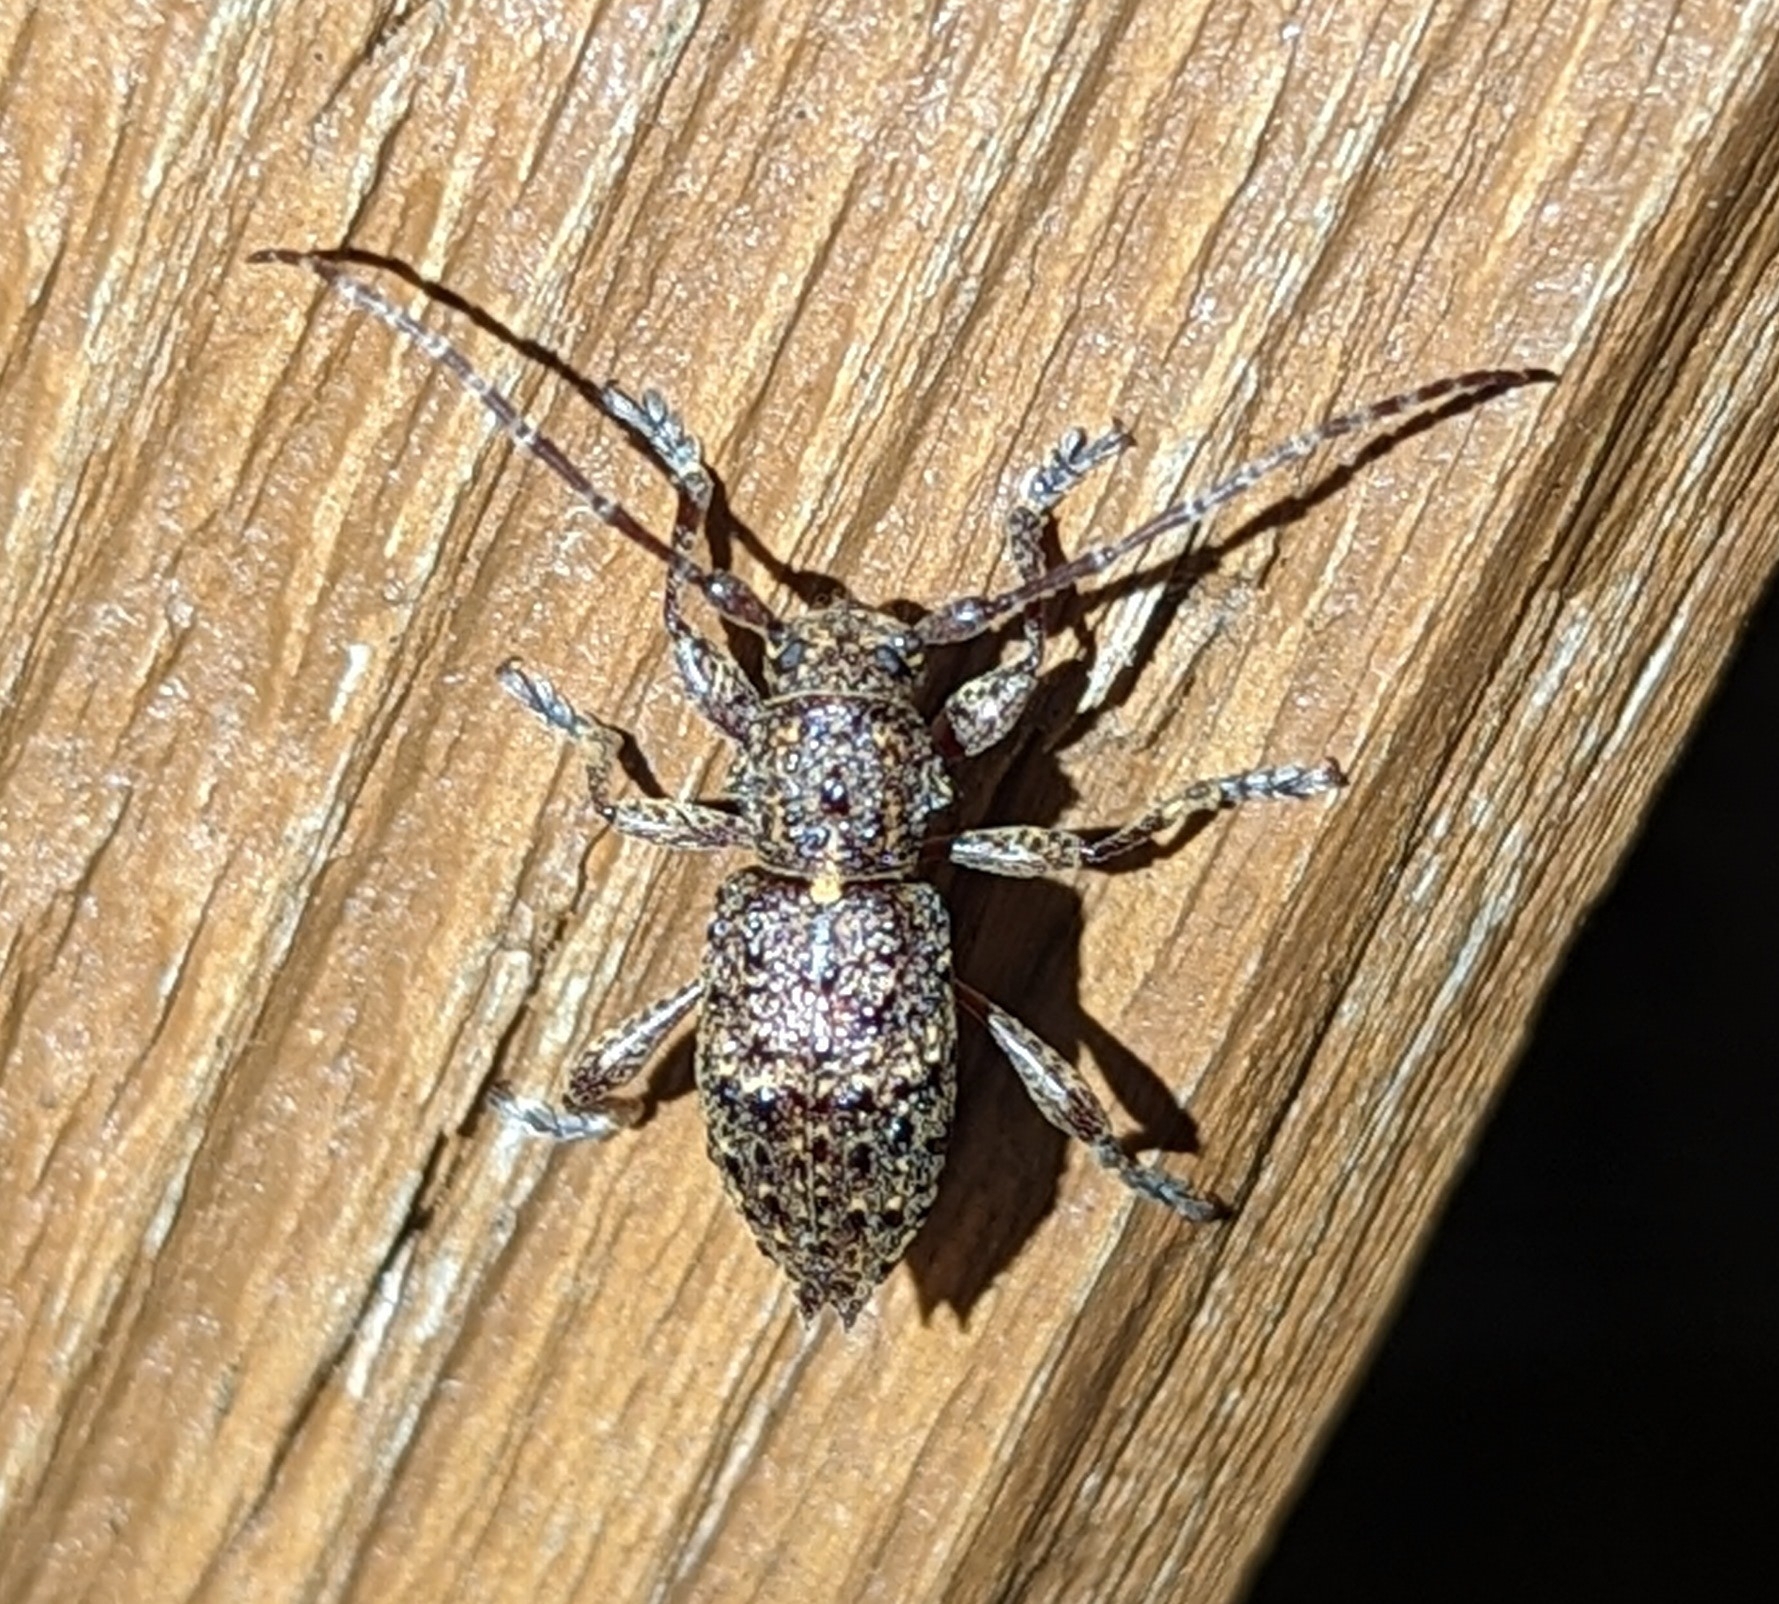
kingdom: Animalia
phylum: Arthropoda
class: Insecta
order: Coleoptera
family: Cerambycidae
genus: Plectrura
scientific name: Plectrura spinicauda
